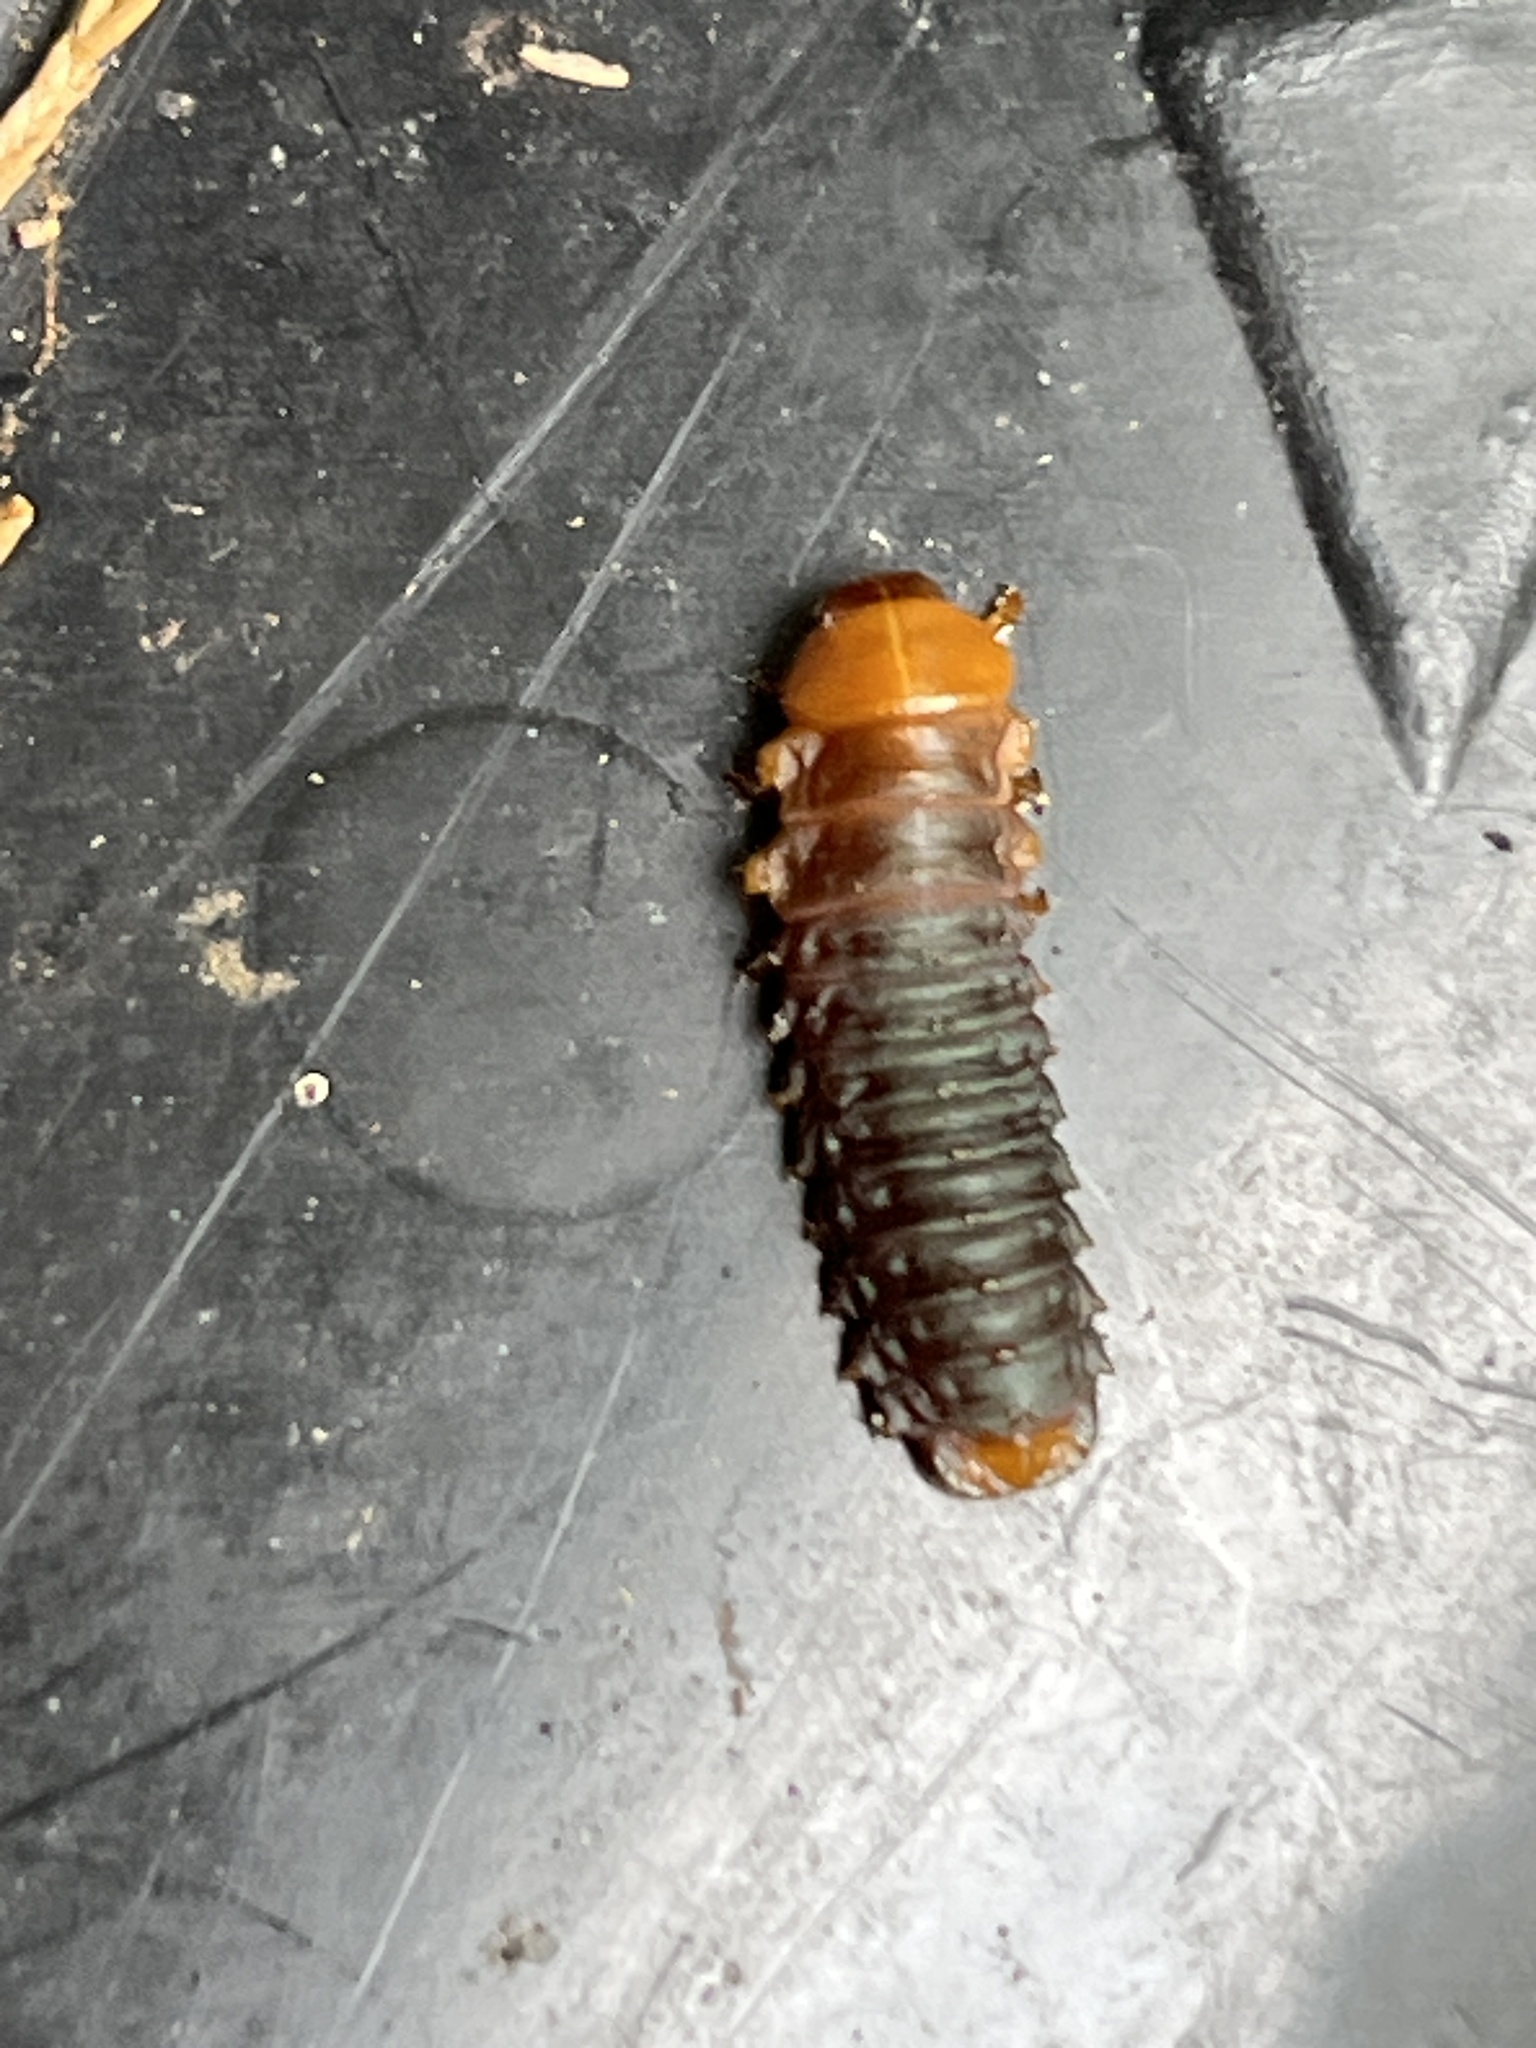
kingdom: Animalia
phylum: Arthropoda
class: Insecta
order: Coleoptera
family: Chrysomelidae
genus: Monocesta
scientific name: Monocesta coryli
